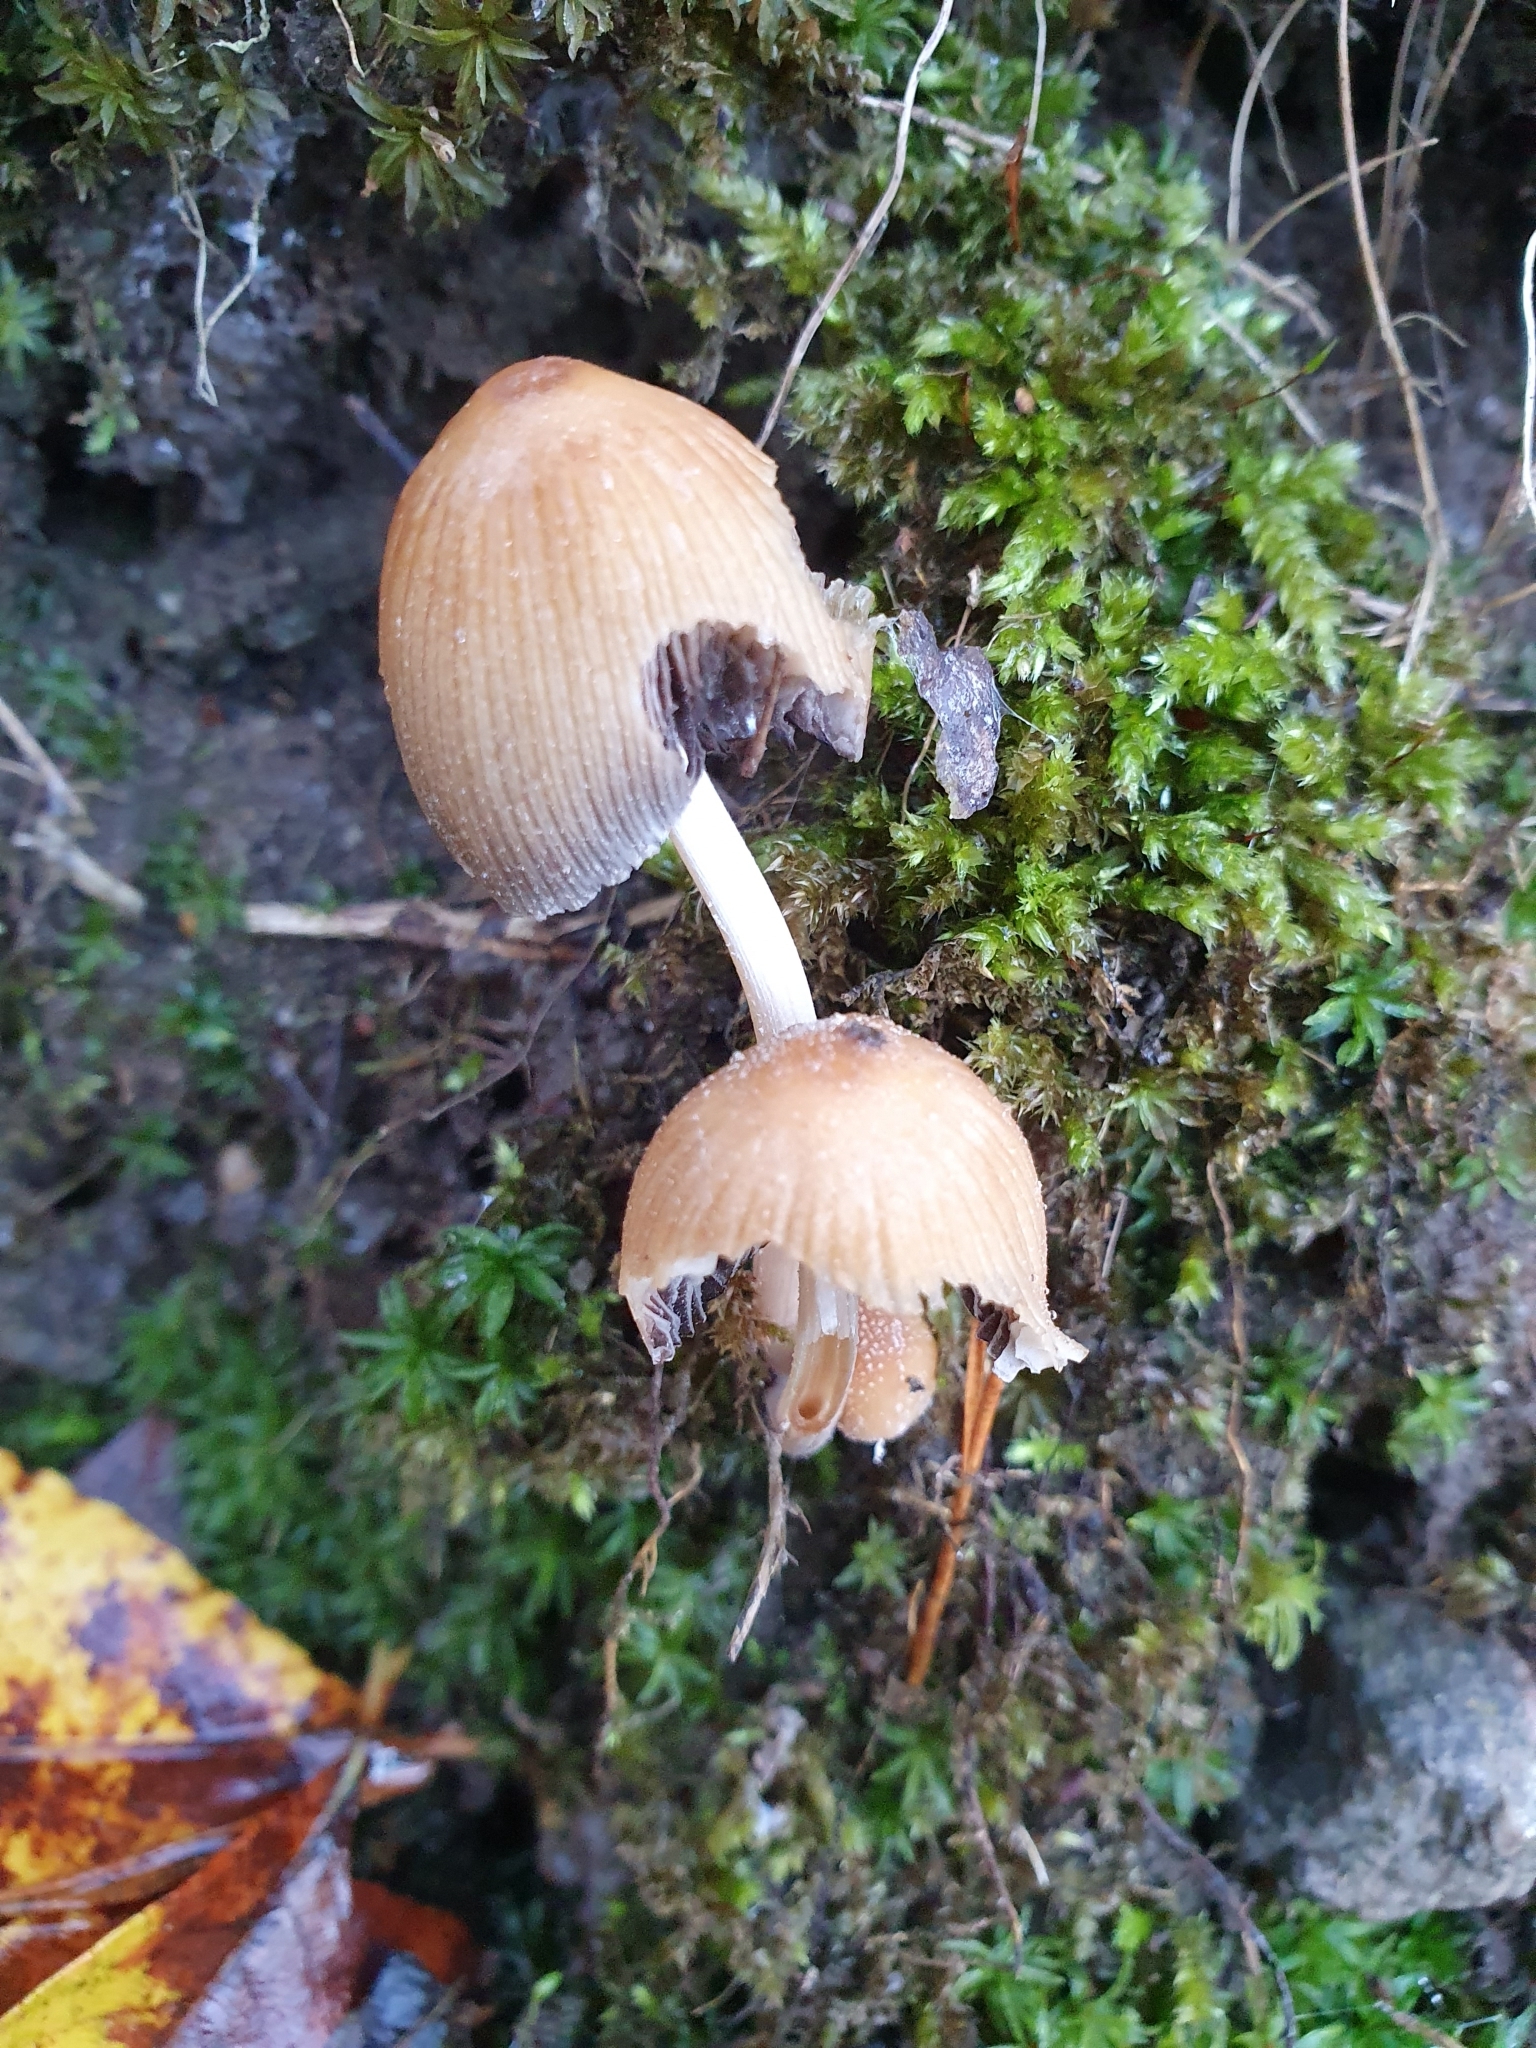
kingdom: Fungi
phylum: Basidiomycota
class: Agaricomycetes
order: Agaricales
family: Psathyrellaceae
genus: Coprinellus
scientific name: Coprinellus micaceus
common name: Glistening ink-cap
